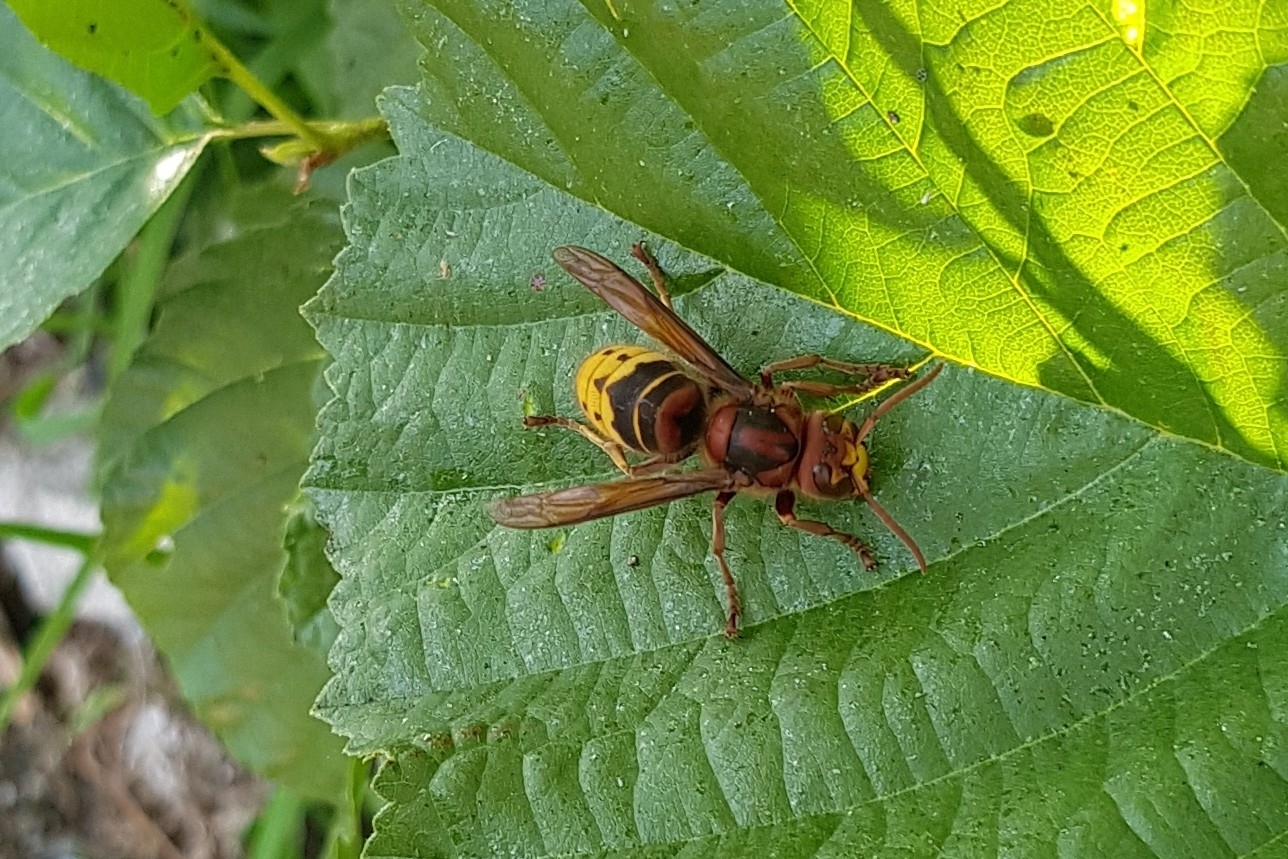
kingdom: Animalia
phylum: Arthropoda
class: Insecta
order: Hymenoptera
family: Vespidae
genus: Vespa
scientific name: Vespa crabro
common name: Hornet
